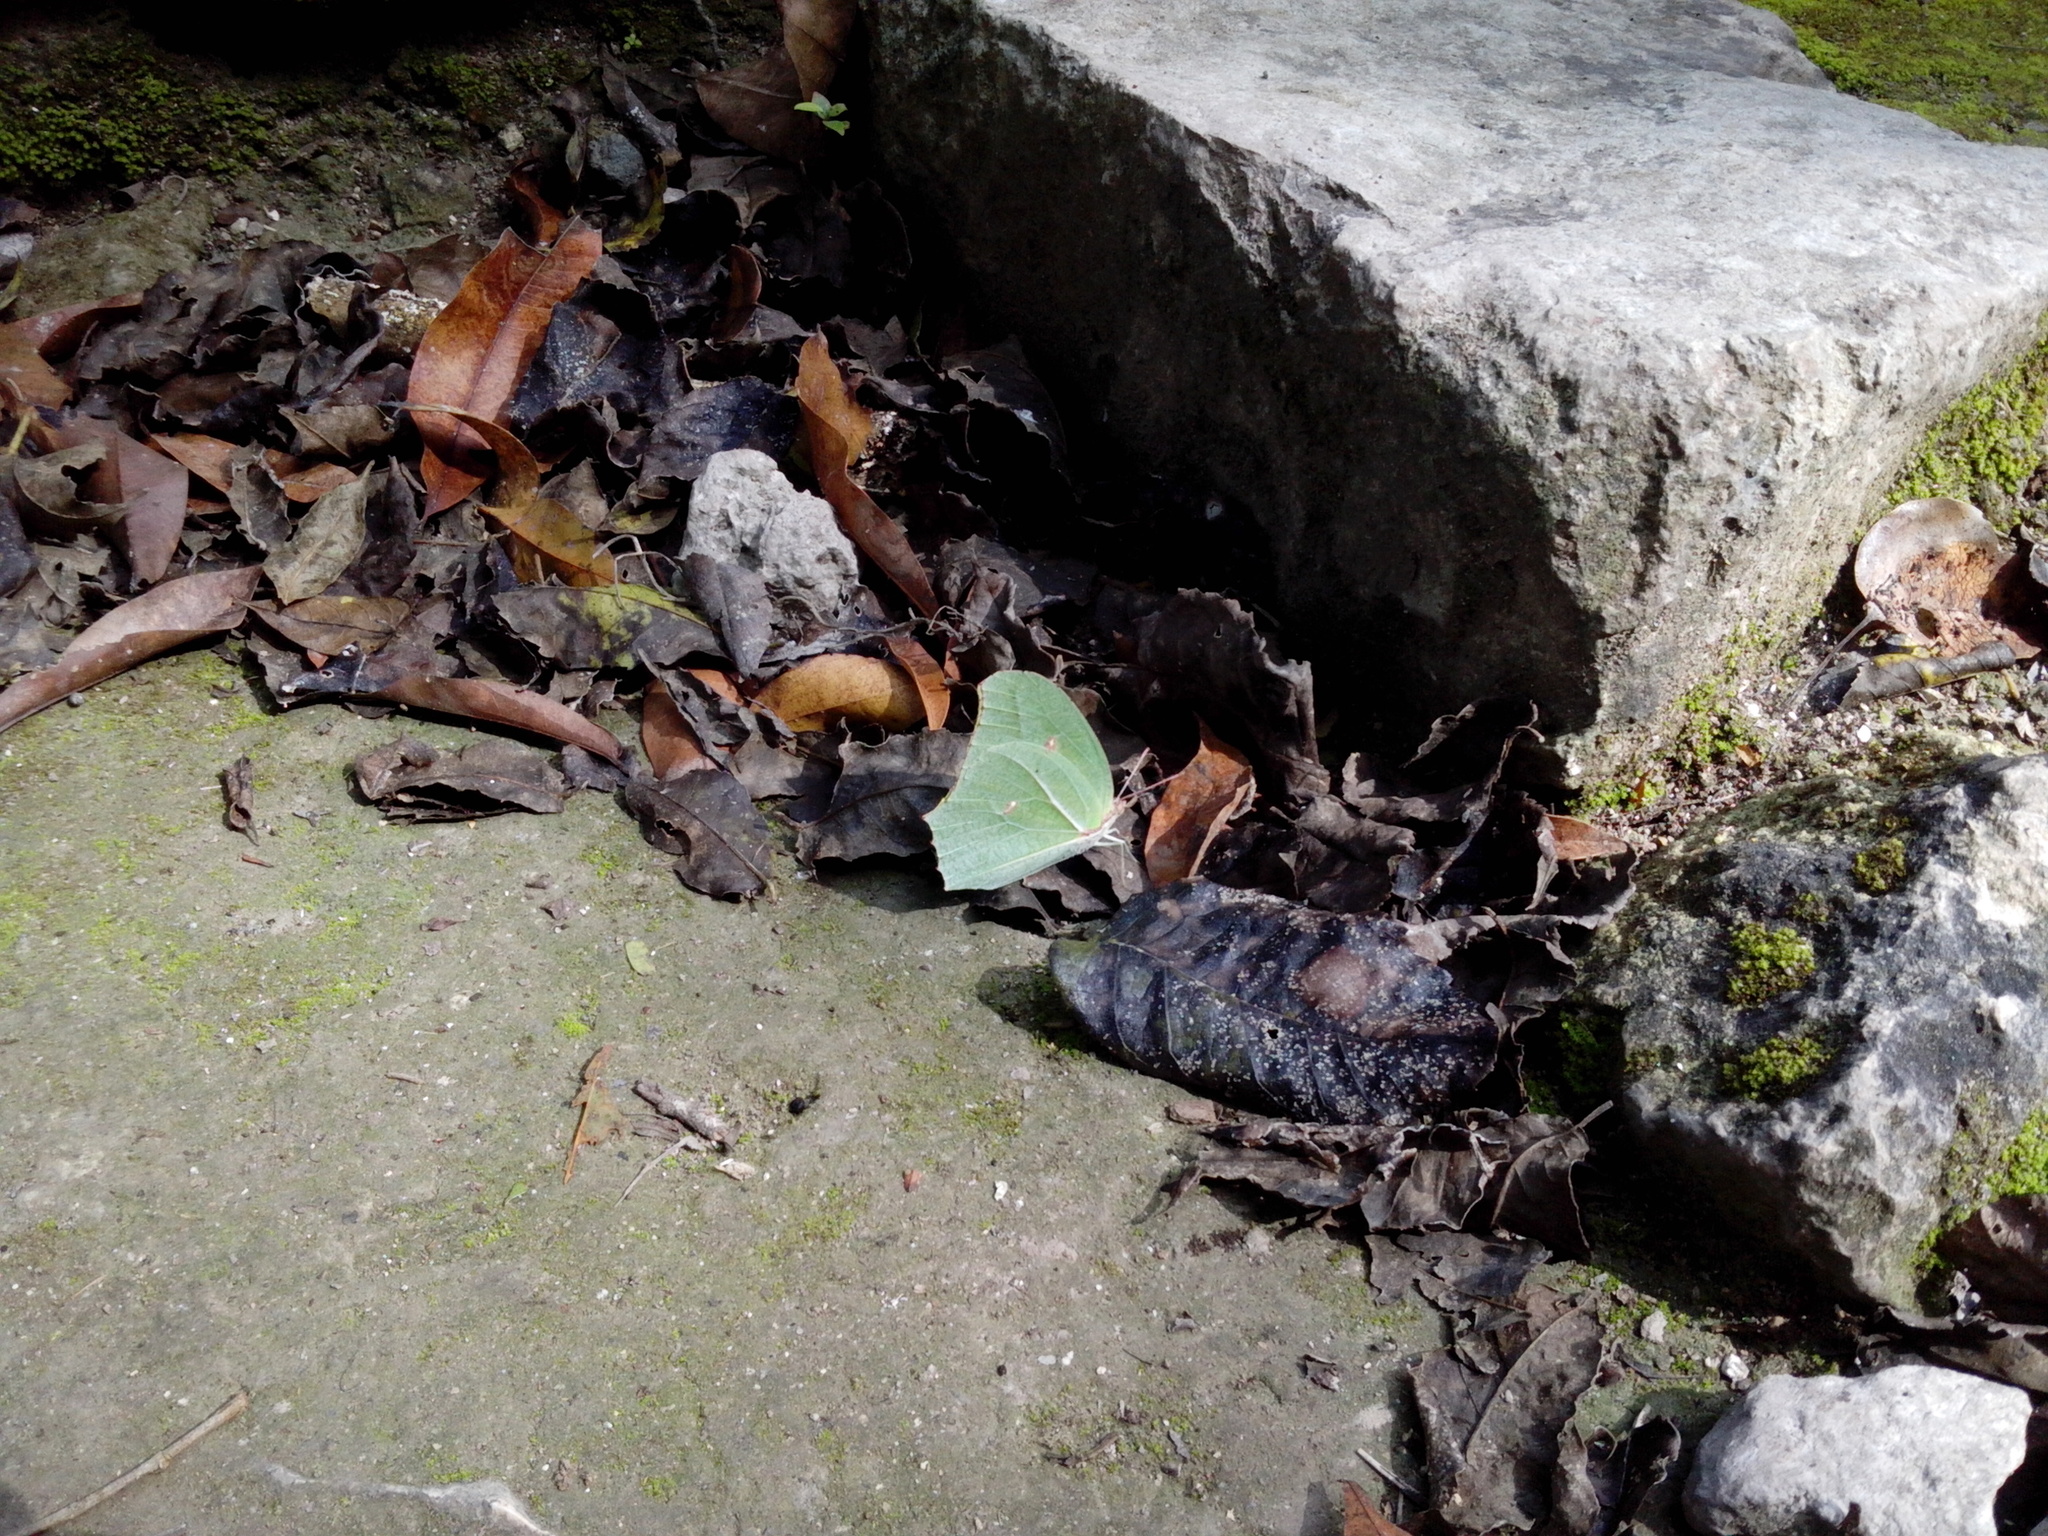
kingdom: Animalia
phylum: Arthropoda
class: Insecta
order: Lepidoptera
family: Pieridae
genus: Anteos
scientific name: Anteos maerula
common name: Angled sulphur
